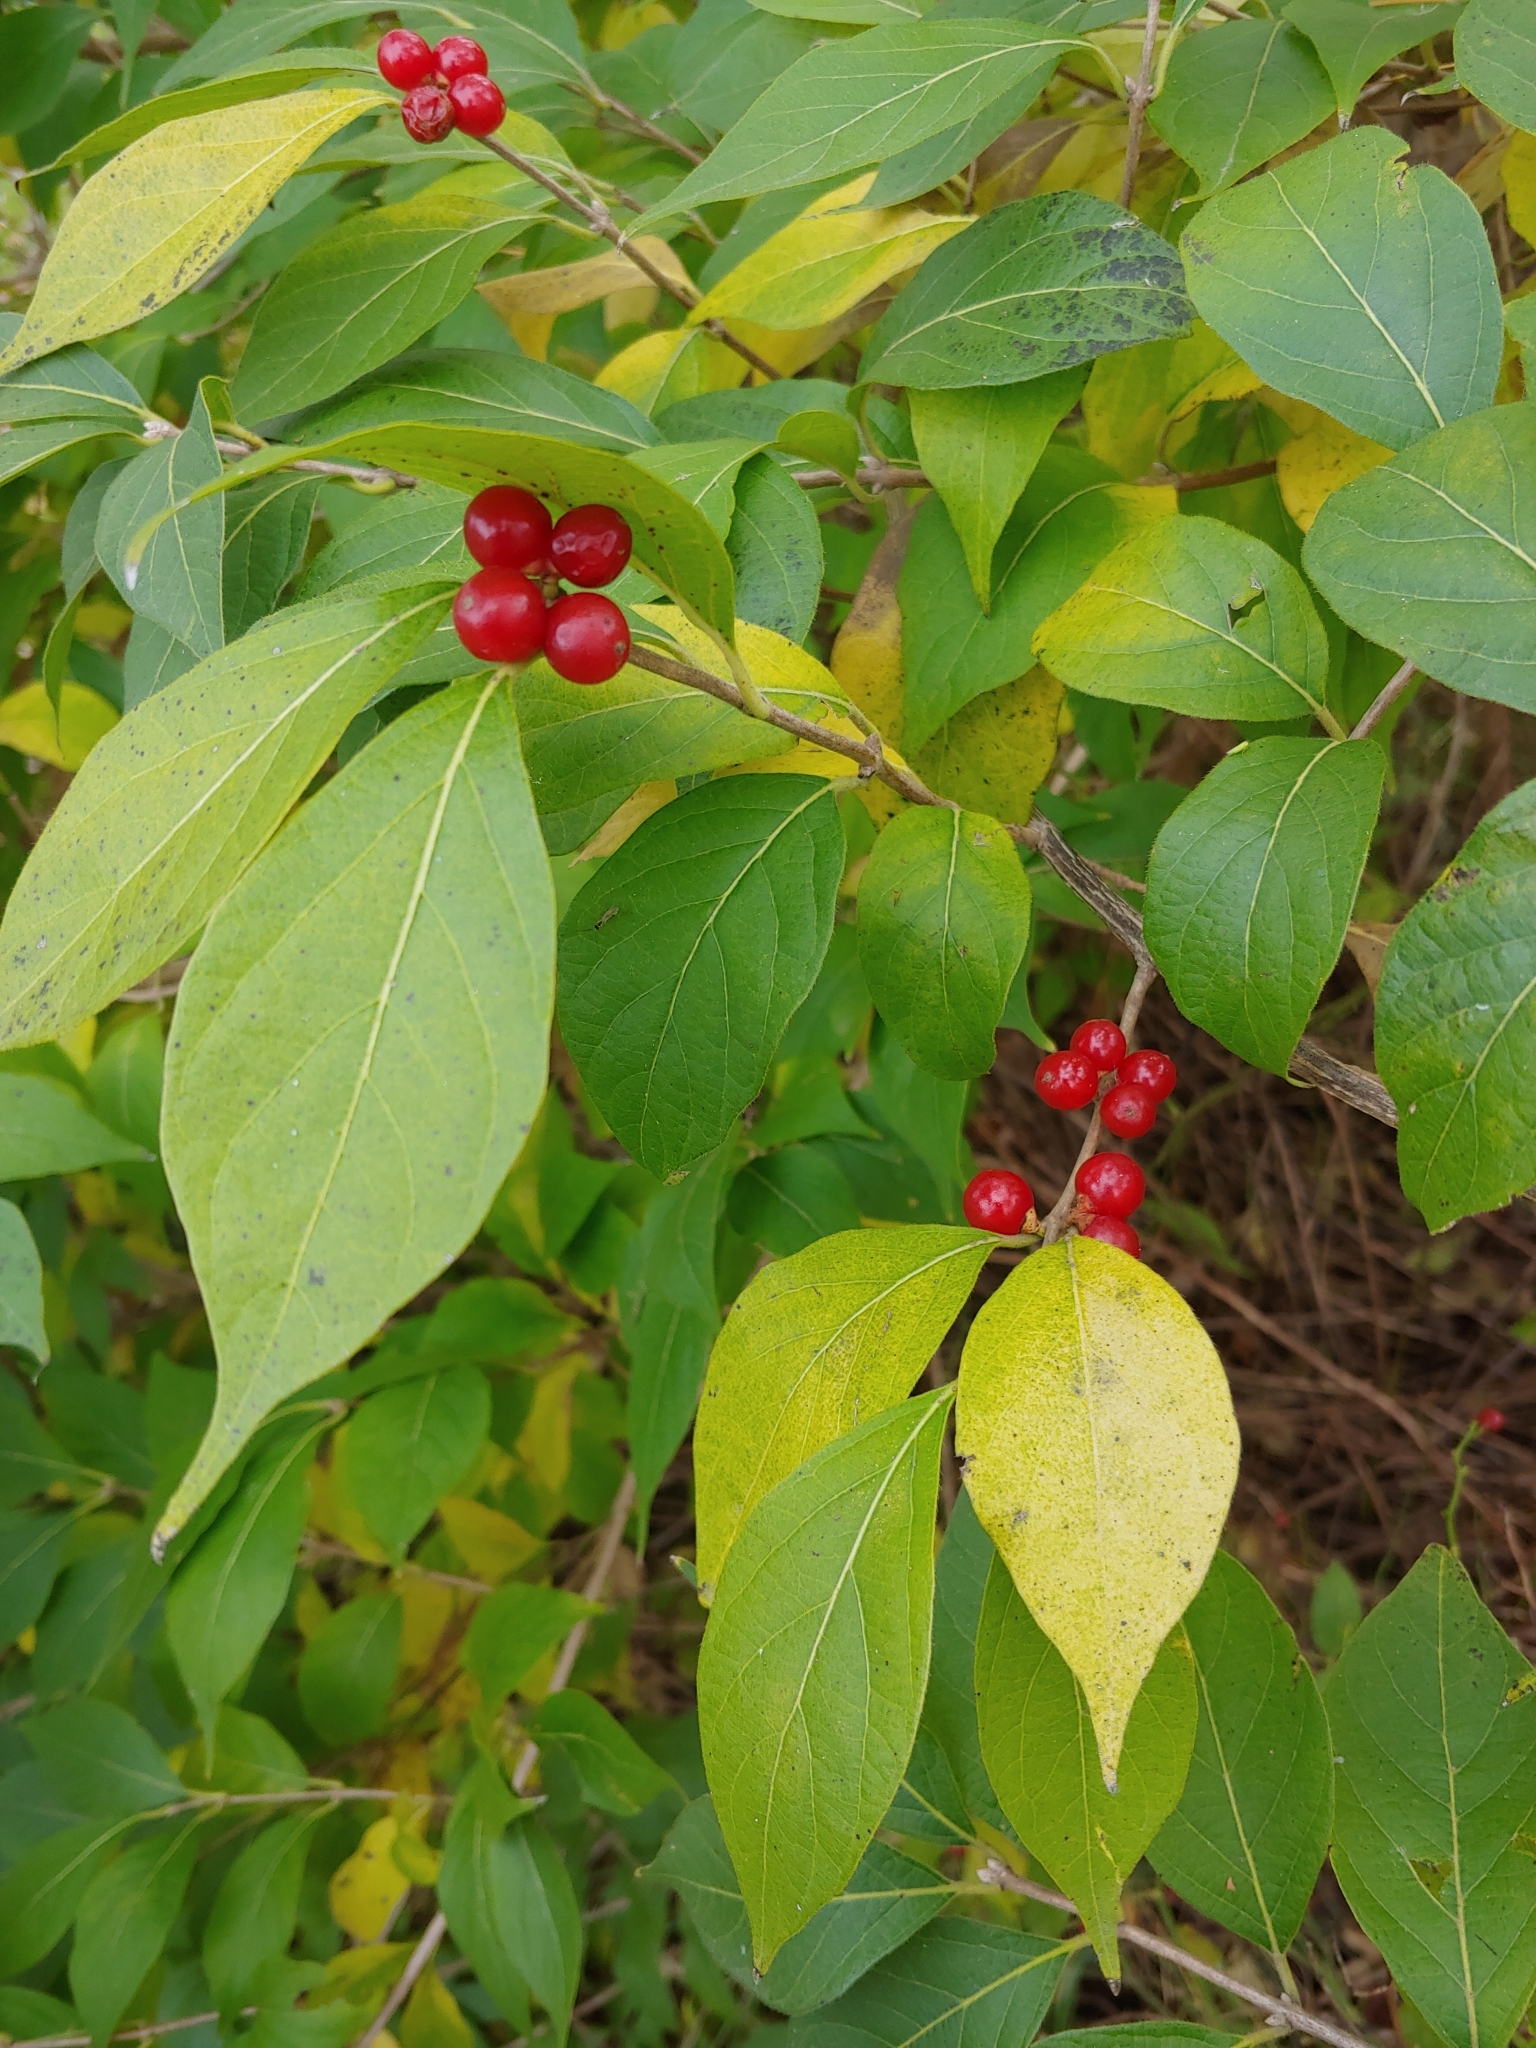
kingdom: Plantae
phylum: Tracheophyta
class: Magnoliopsida
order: Dipsacales
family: Caprifoliaceae
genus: Lonicera
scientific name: Lonicera maackii
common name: Amur honeysuckle
